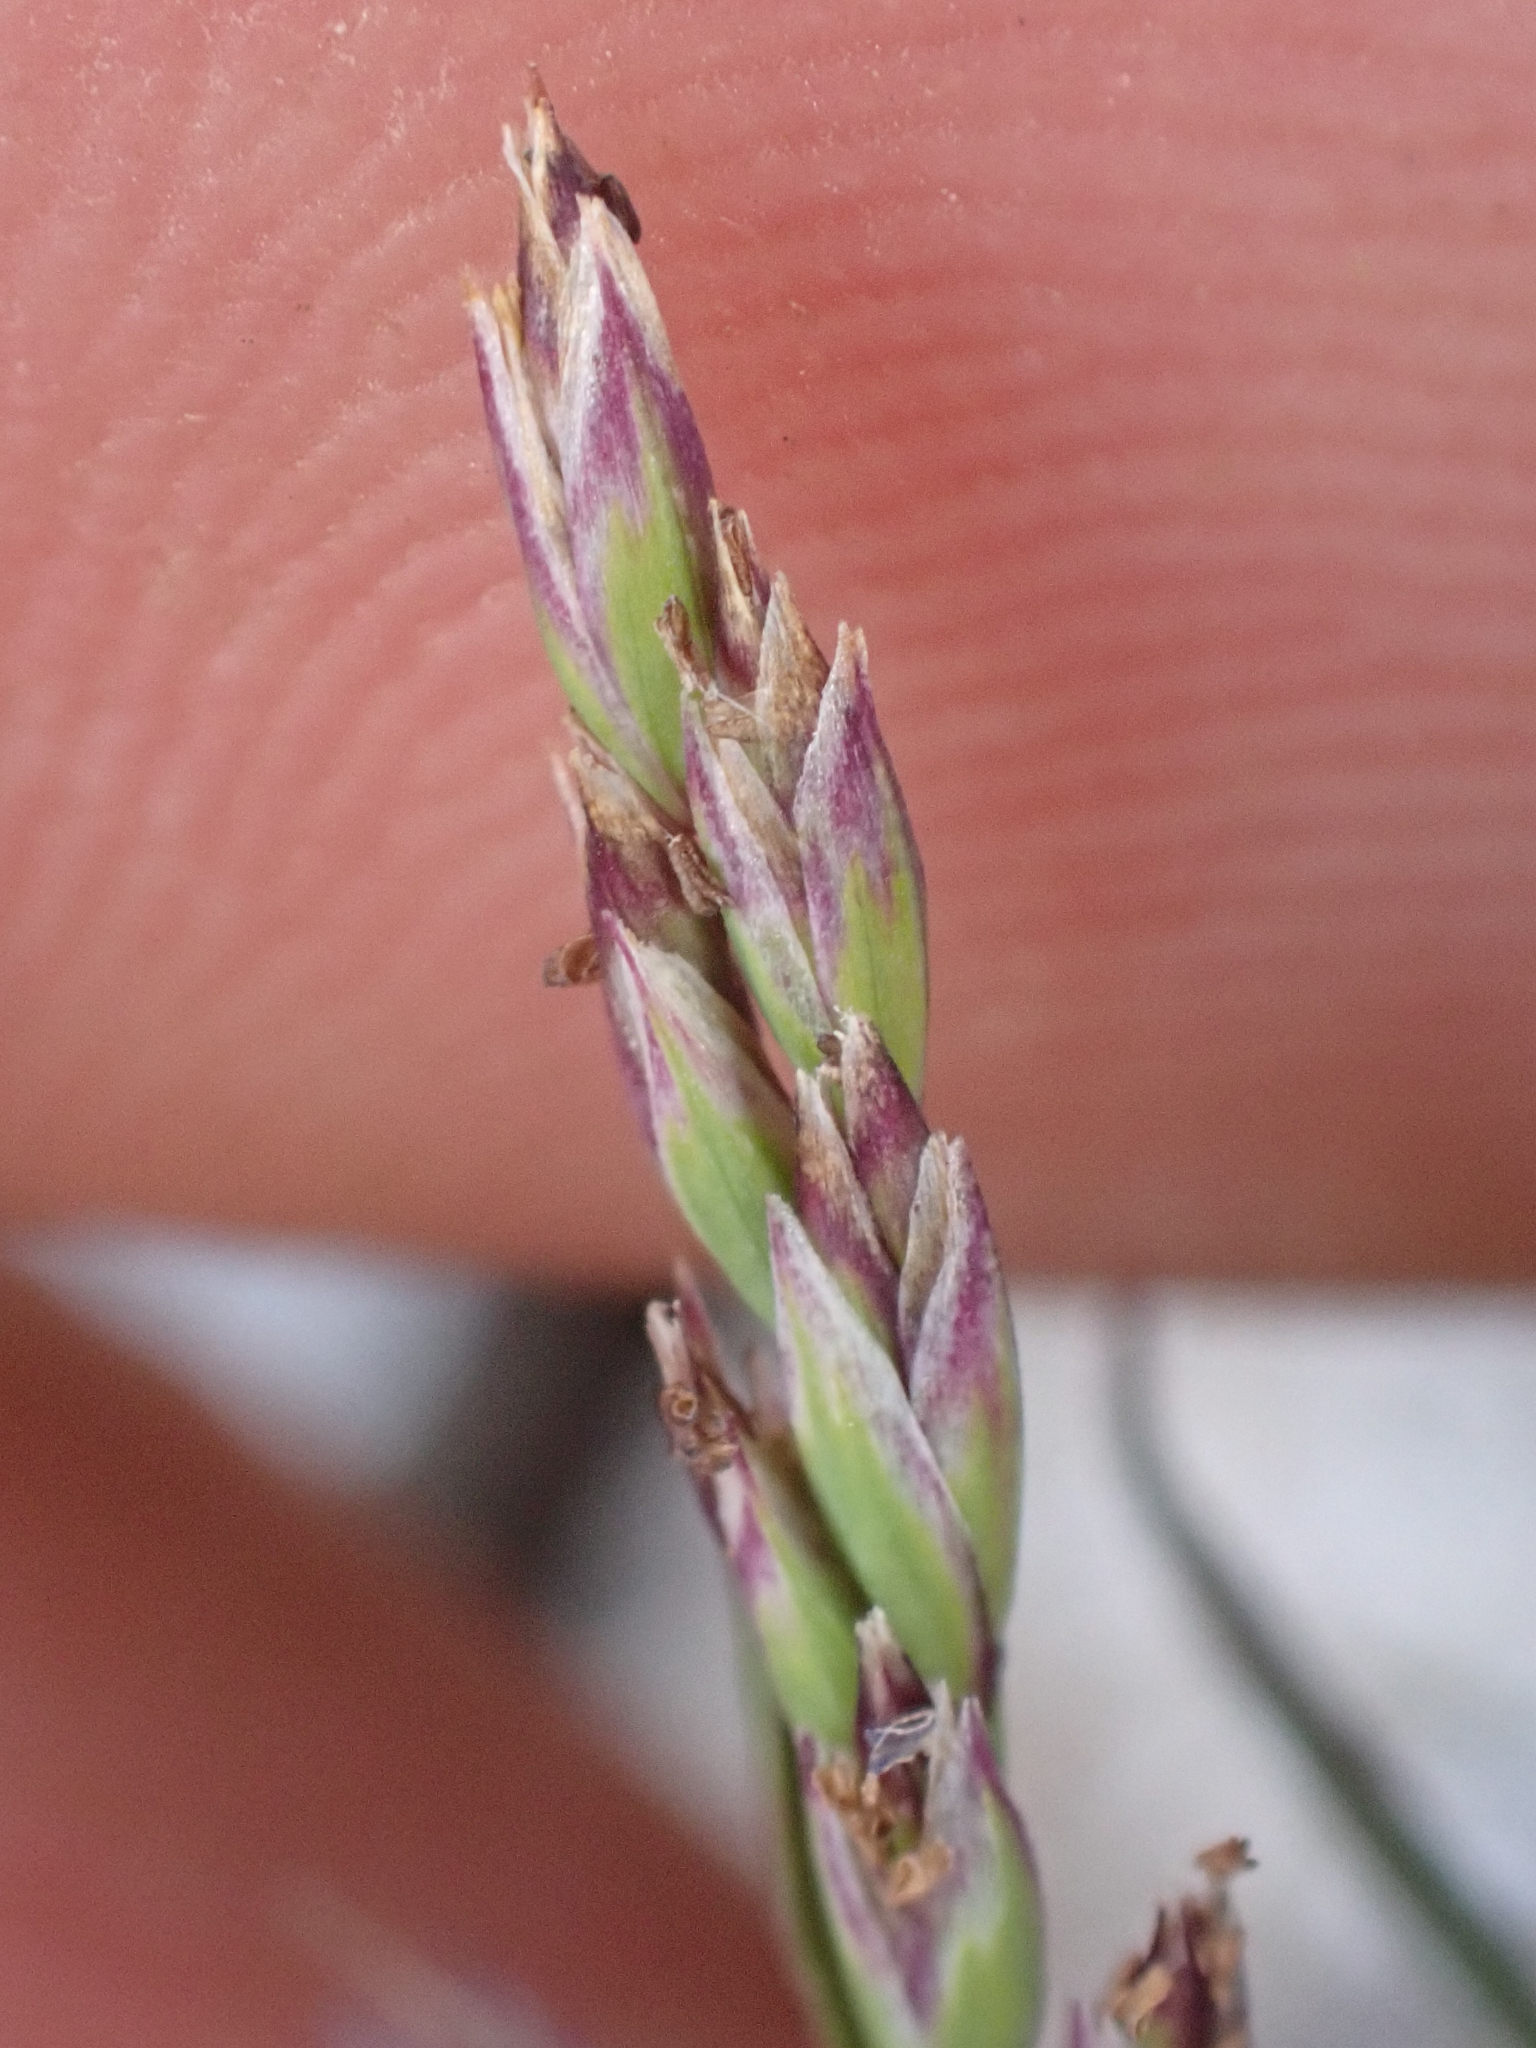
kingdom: Plantae
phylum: Tracheophyta
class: Liliopsida
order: Poales
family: Poaceae
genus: Poa
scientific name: Poa pattersonii
